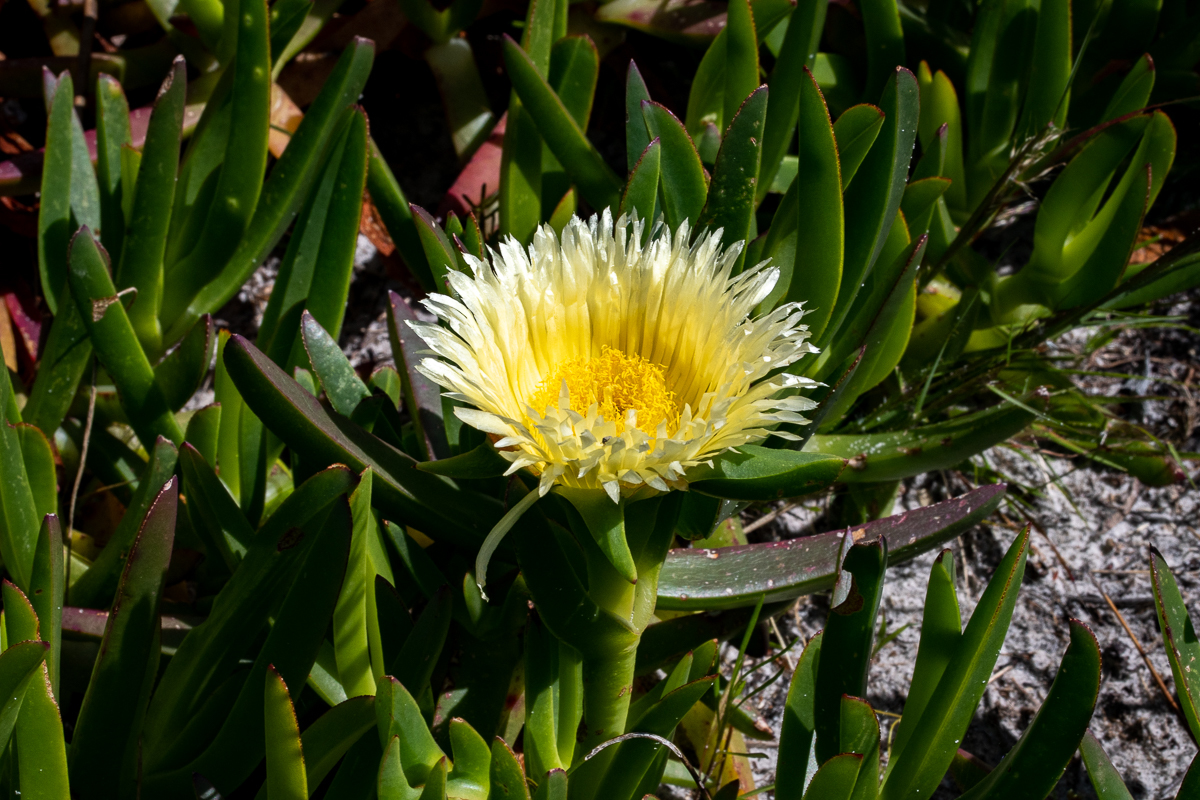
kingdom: Plantae
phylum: Tracheophyta
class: Magnoliopsida
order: Caryophyllales
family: Aizoaceae
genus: Carpobrotus
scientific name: Carpobrotus edulis
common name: Hottentot-fig
